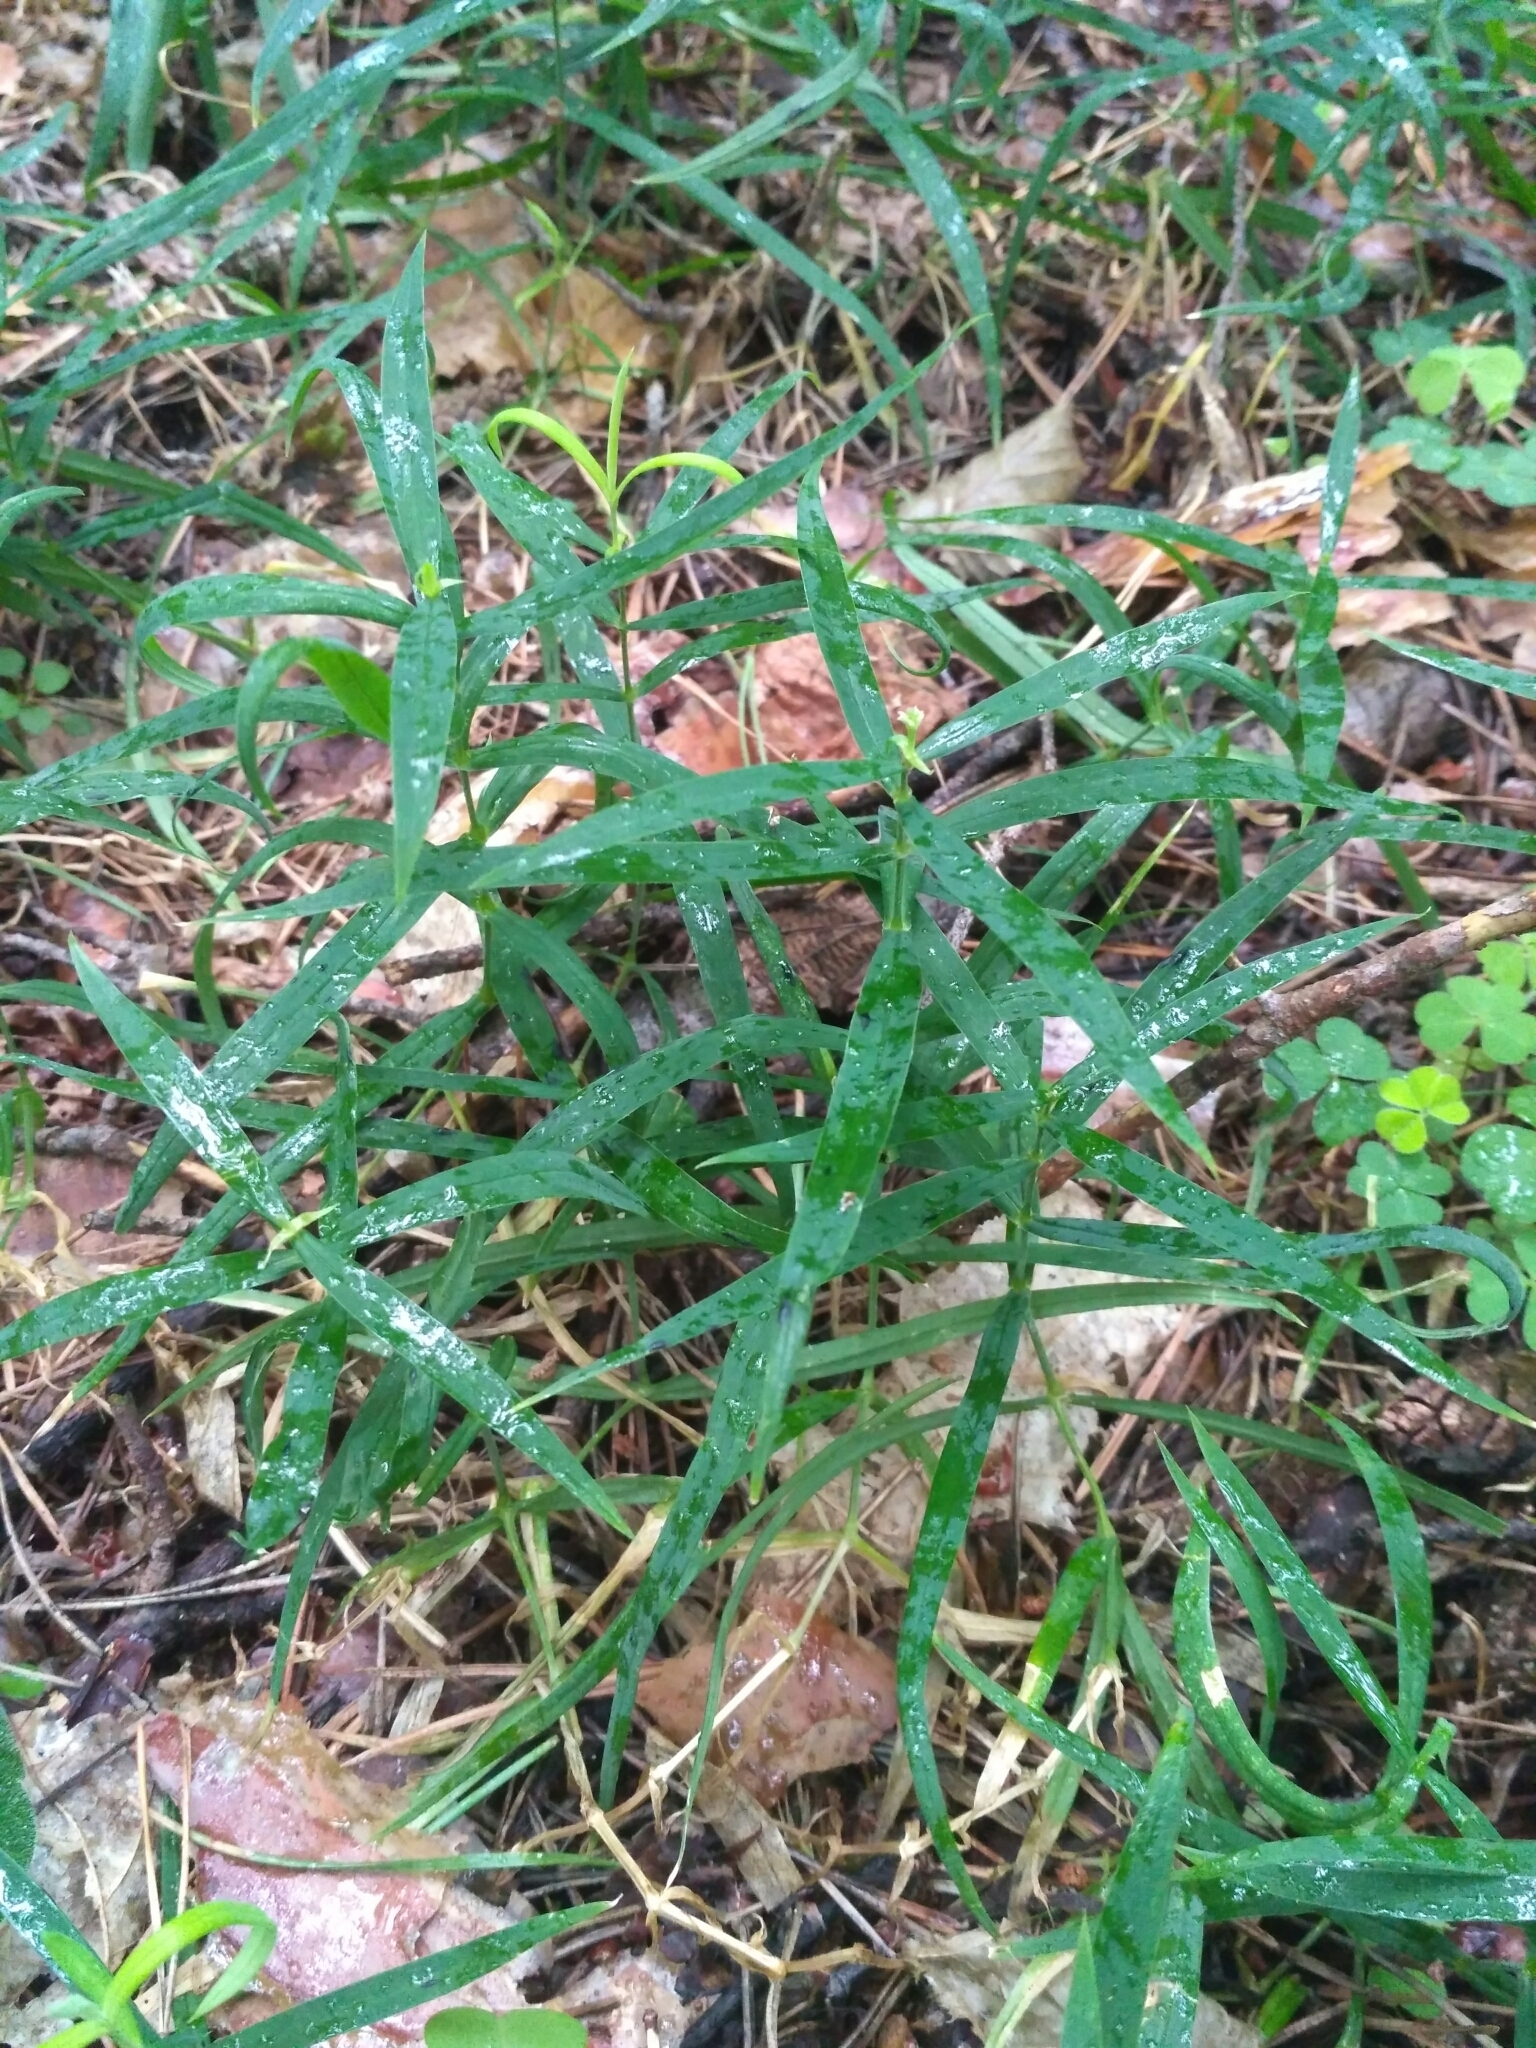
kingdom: Plantae
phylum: Tracheophyta
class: Magnoliopsida
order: Caryophyllales
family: Caryophyllaceae
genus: Rabelera
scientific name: Rabelera holostea
